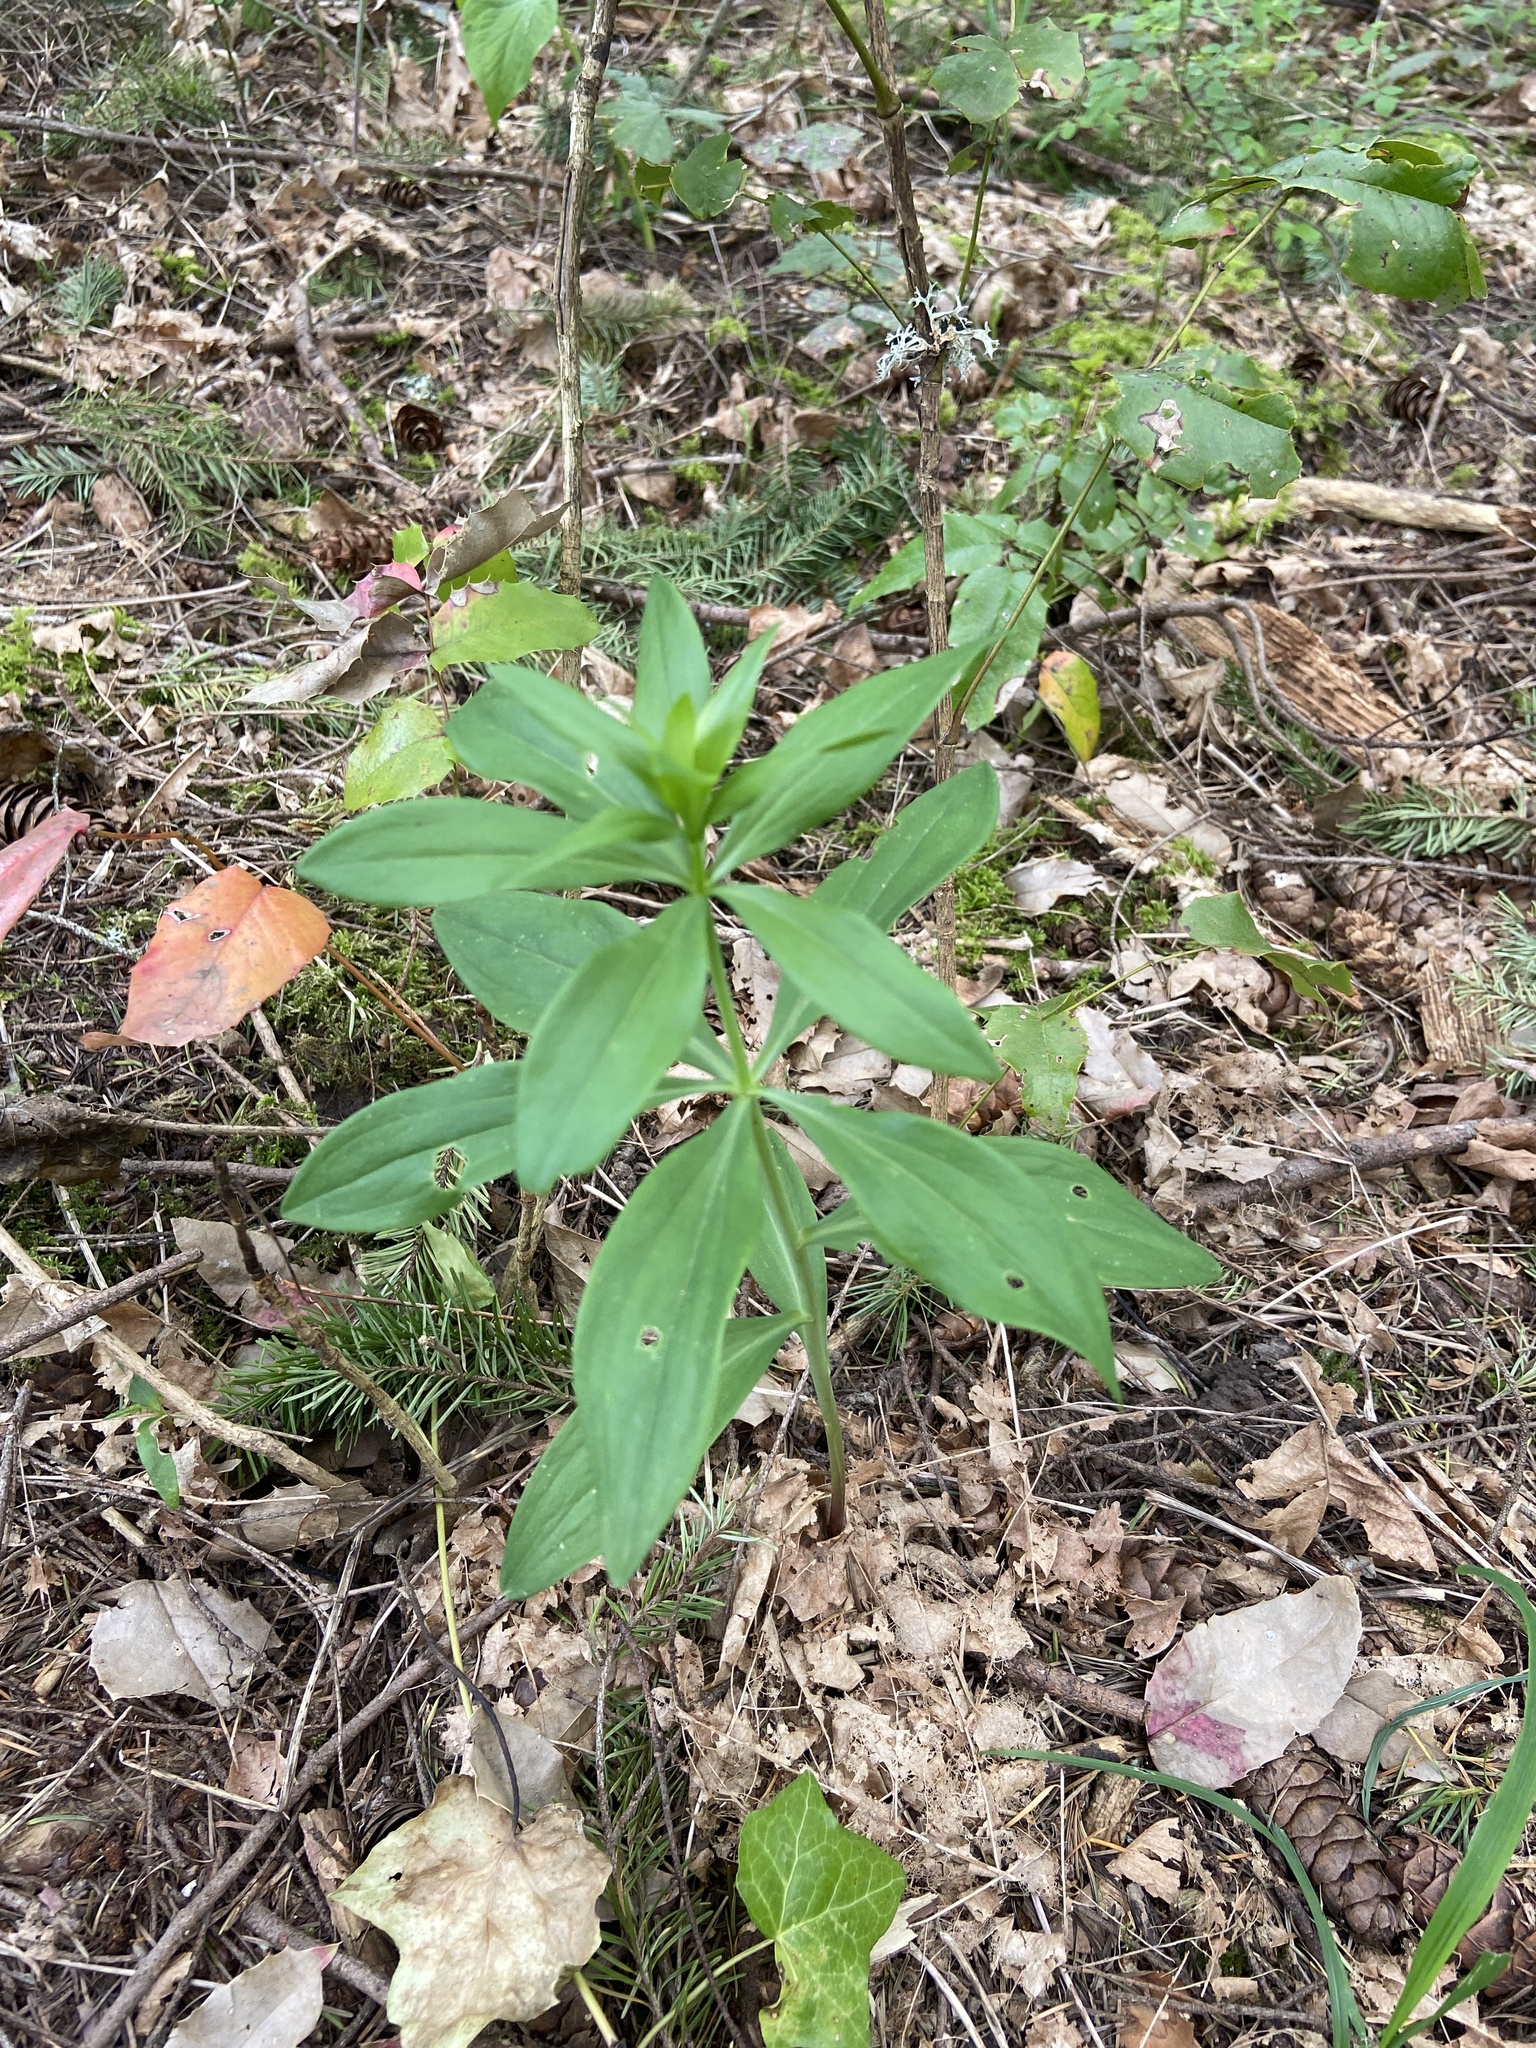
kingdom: Plantae
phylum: Tracheophyta
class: Liliopsida
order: Liliales
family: Liliaceae
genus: Lilium
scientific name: Lilium columbianum
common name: Columbia lily
